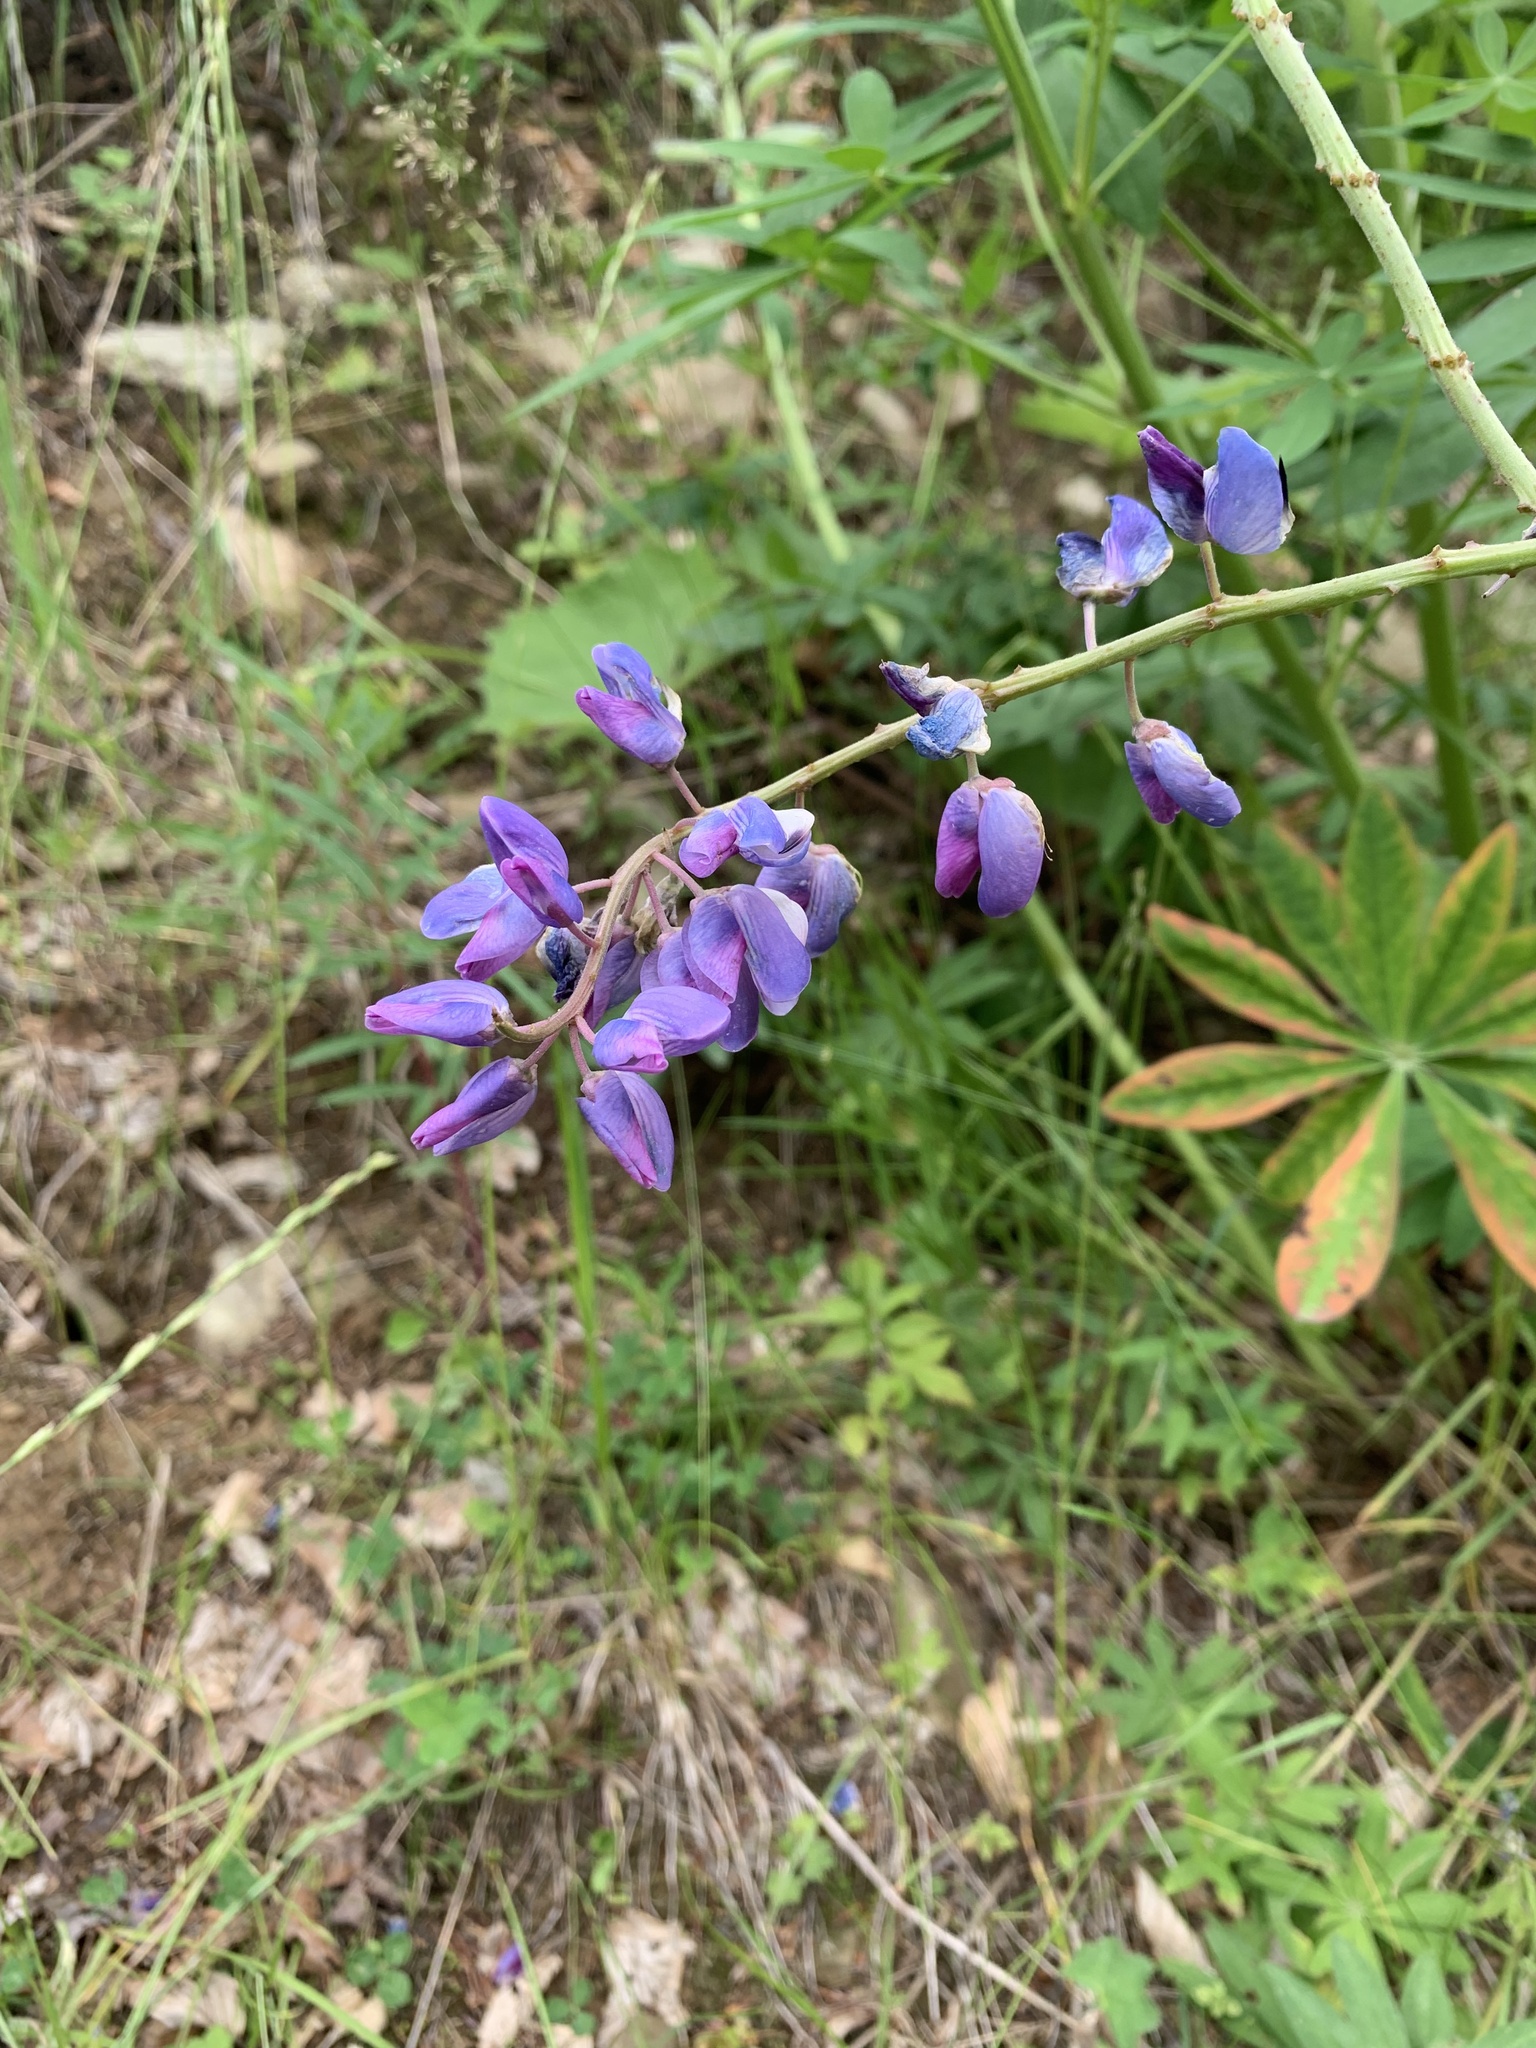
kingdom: Plantae
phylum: Tracheophyta
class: Magnoliopsida
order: Fabales
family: Fabaceae
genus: Lupinus
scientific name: Lupinus polyphyllus
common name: Garden lupin
